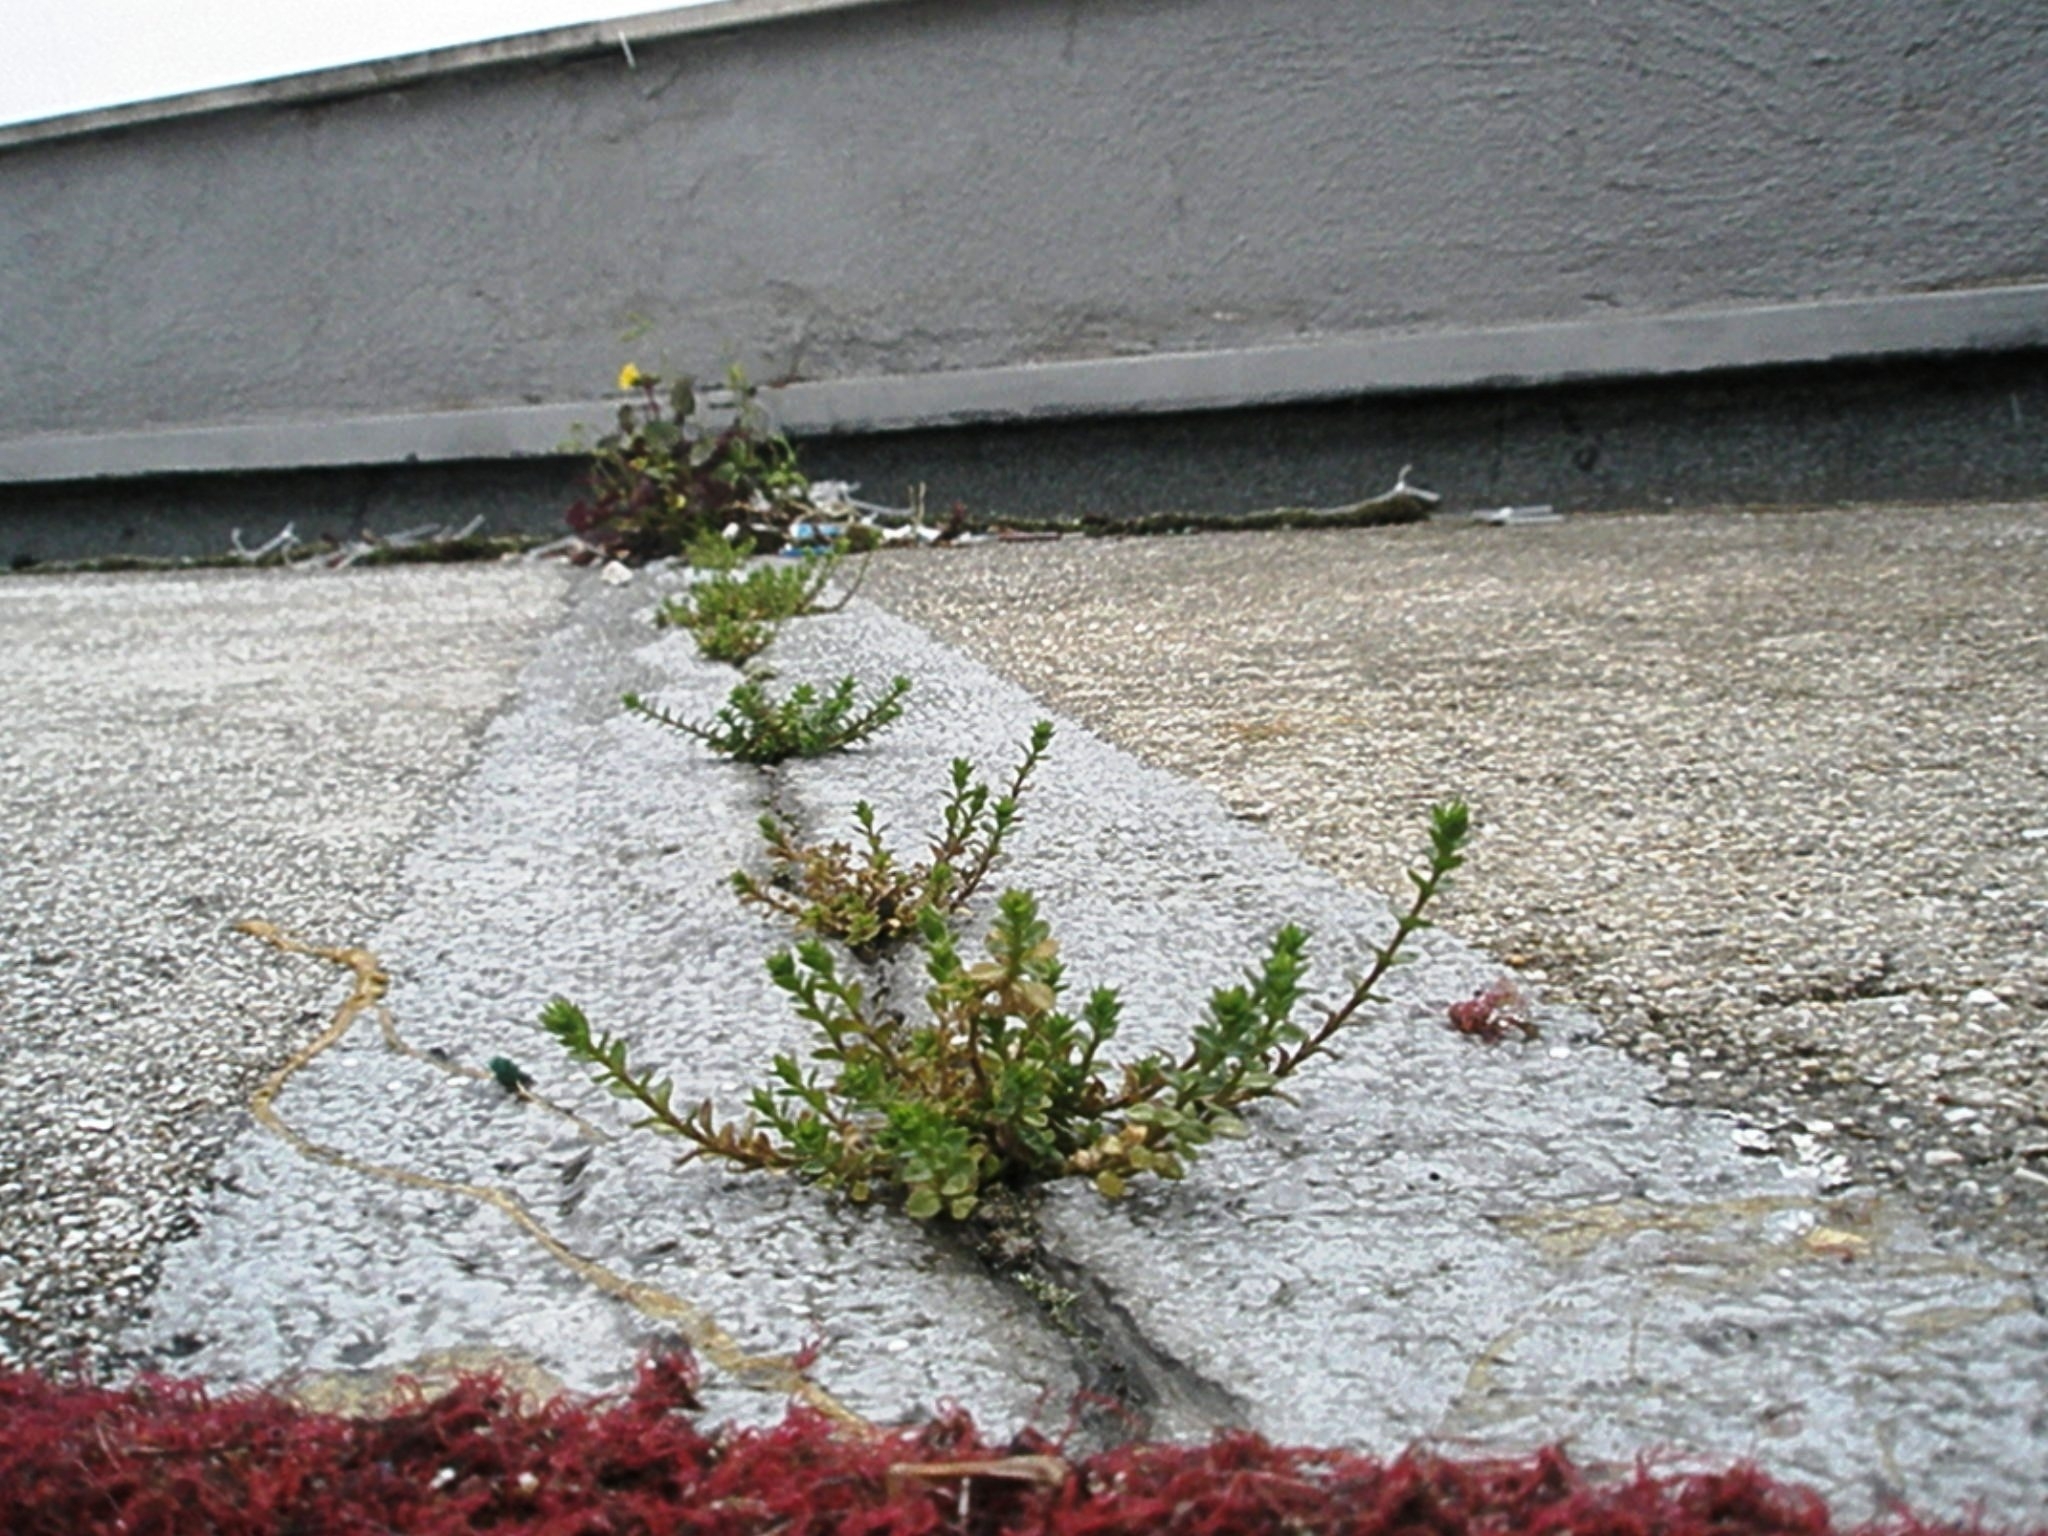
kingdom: Plantae
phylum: Tracheophyta
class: Magnoliopsida
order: Caryophyllales
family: Caryophyllaceae
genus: Arenaria
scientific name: Arenaria serpyllifolia
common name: Thyme-leaved sandwort
